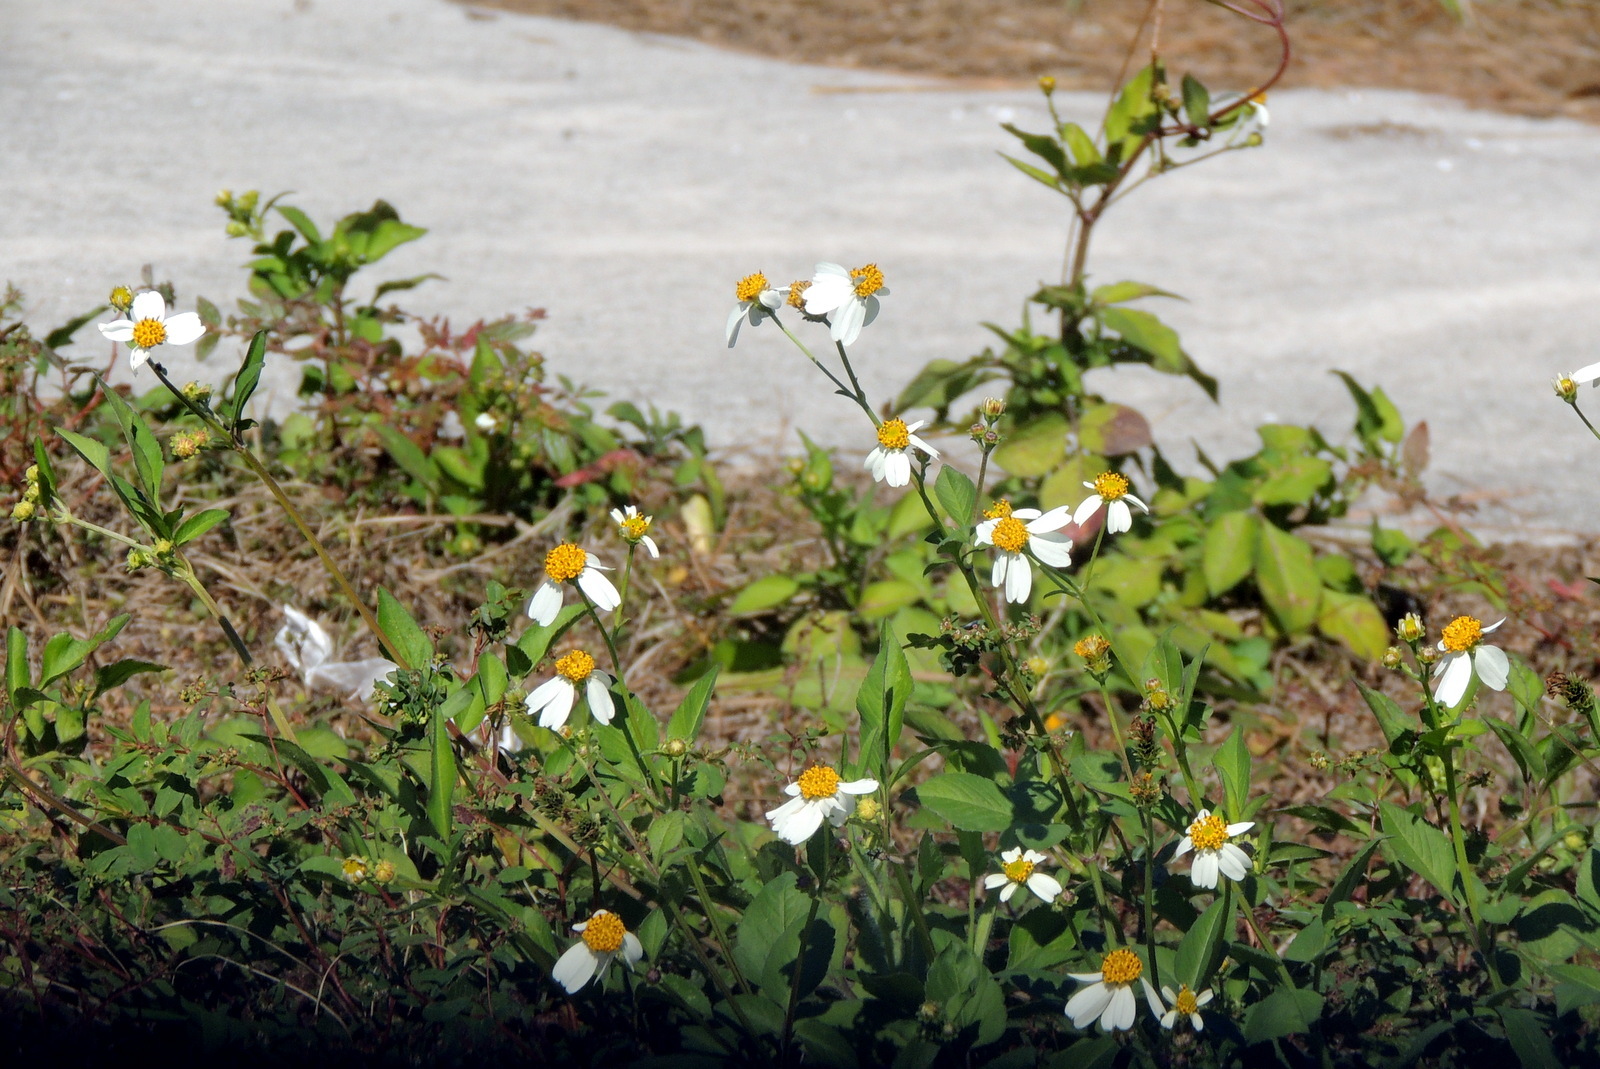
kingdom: Plantae
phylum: Tracheophyta
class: Magnoliopsida
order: Asterales
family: Asteraceae
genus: Bidens
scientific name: Bidens alba
